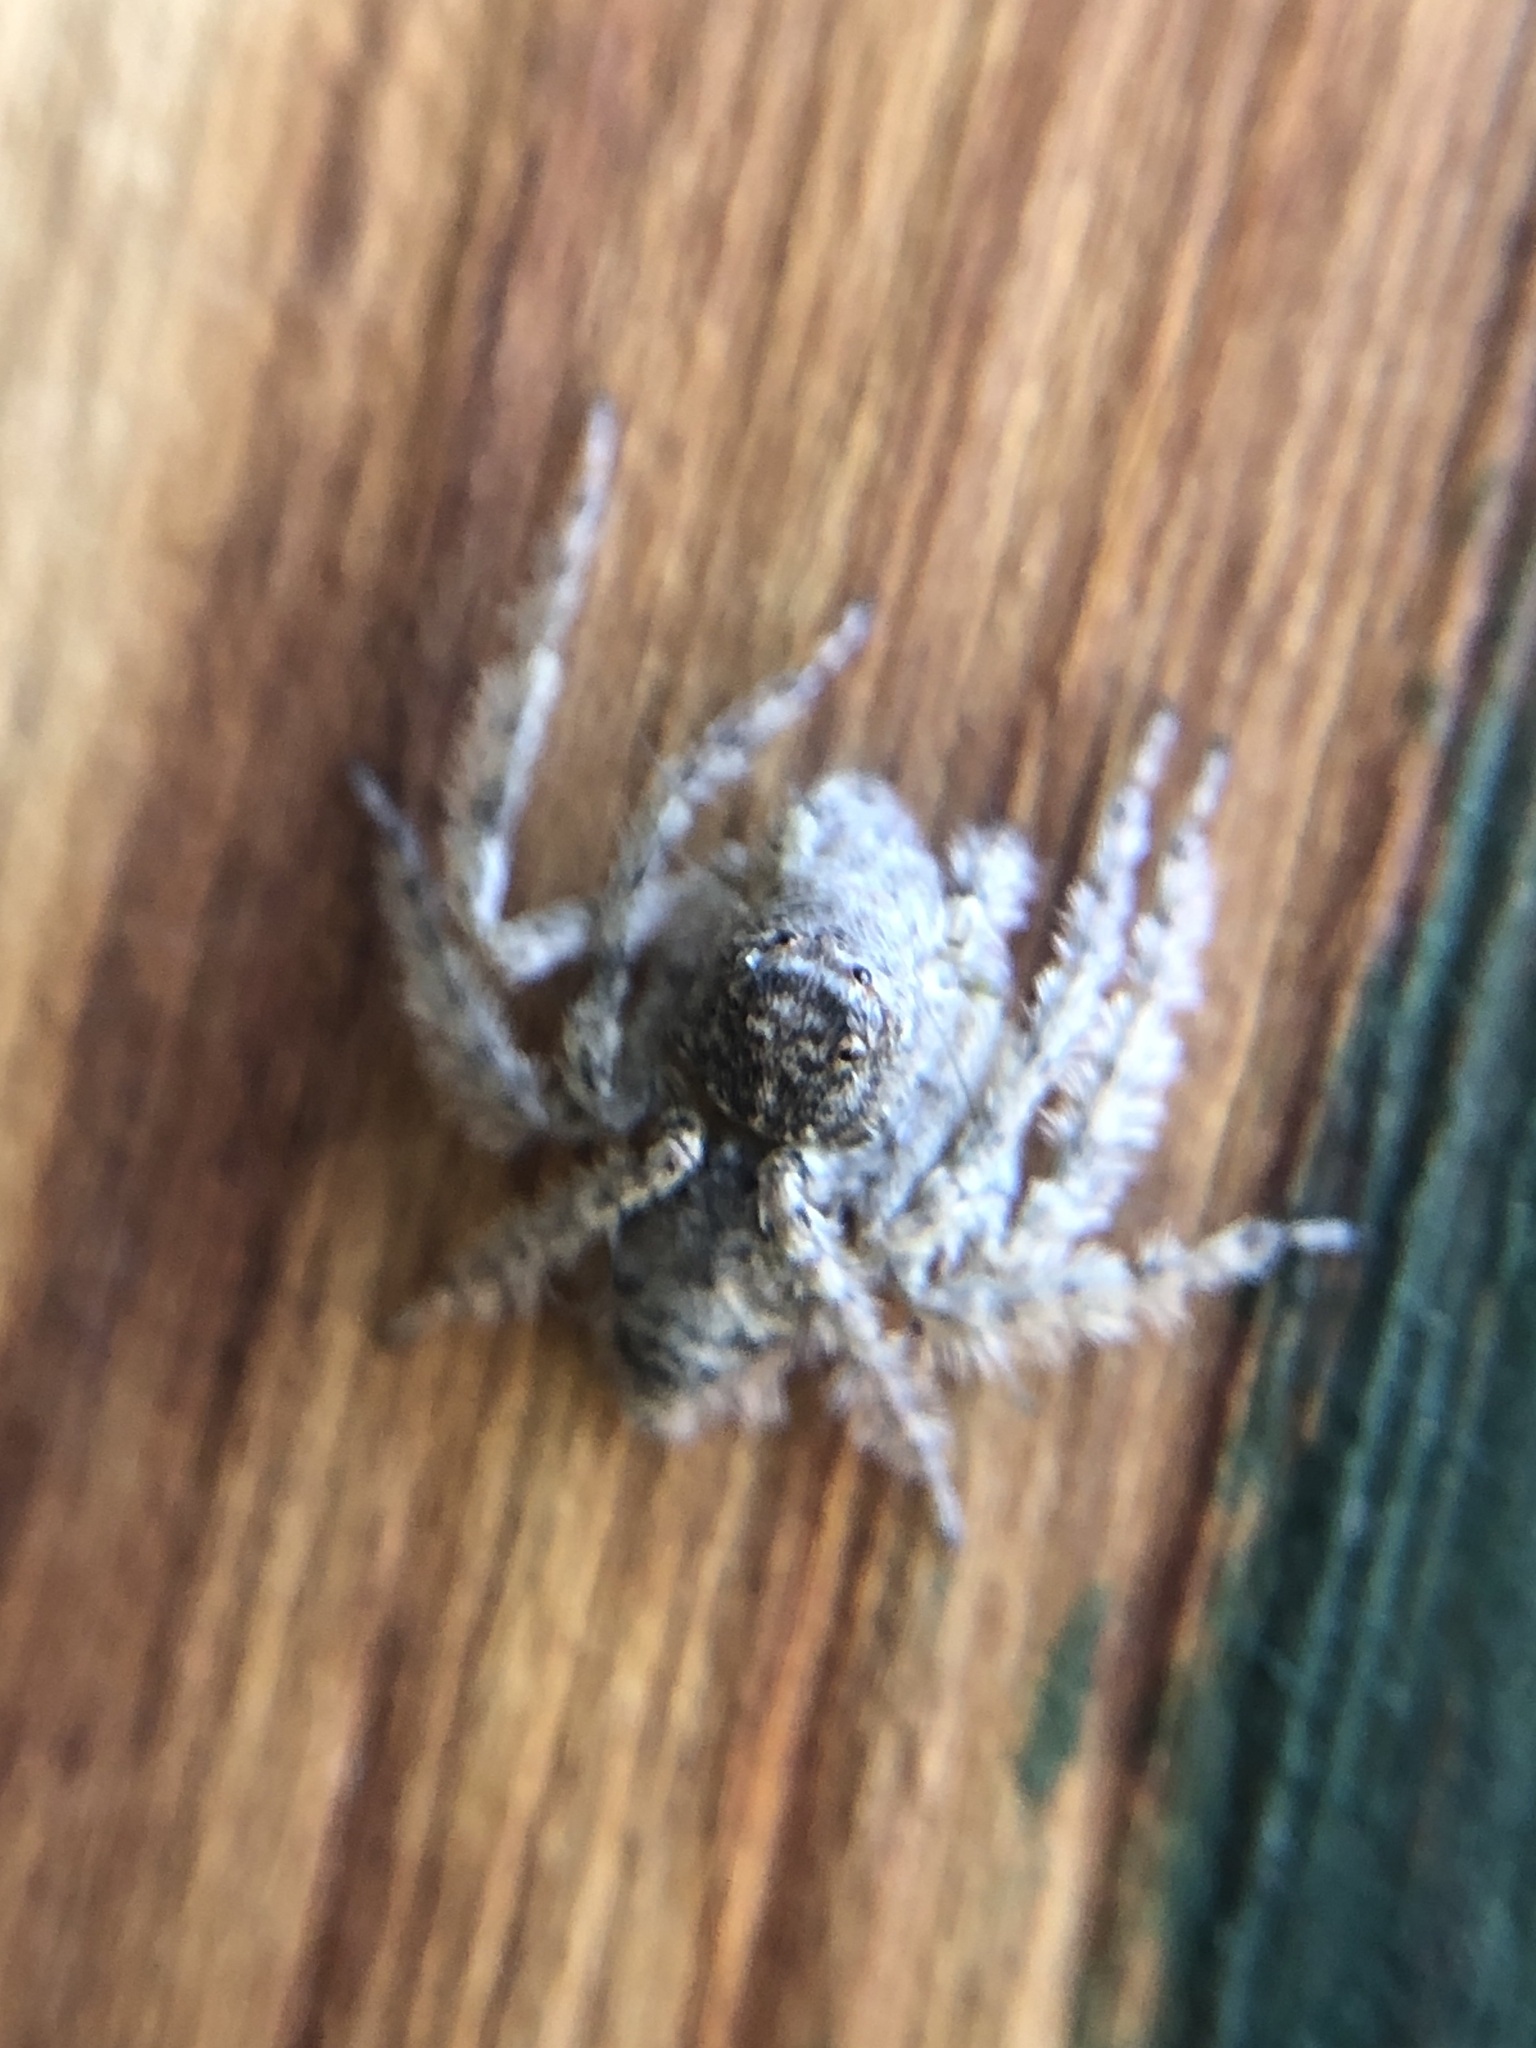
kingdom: Animalia
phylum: Arthropoda
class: Arachnida
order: Araneae
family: Oxyopidae
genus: Hamataliwa
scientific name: Hamataliwa grisea
